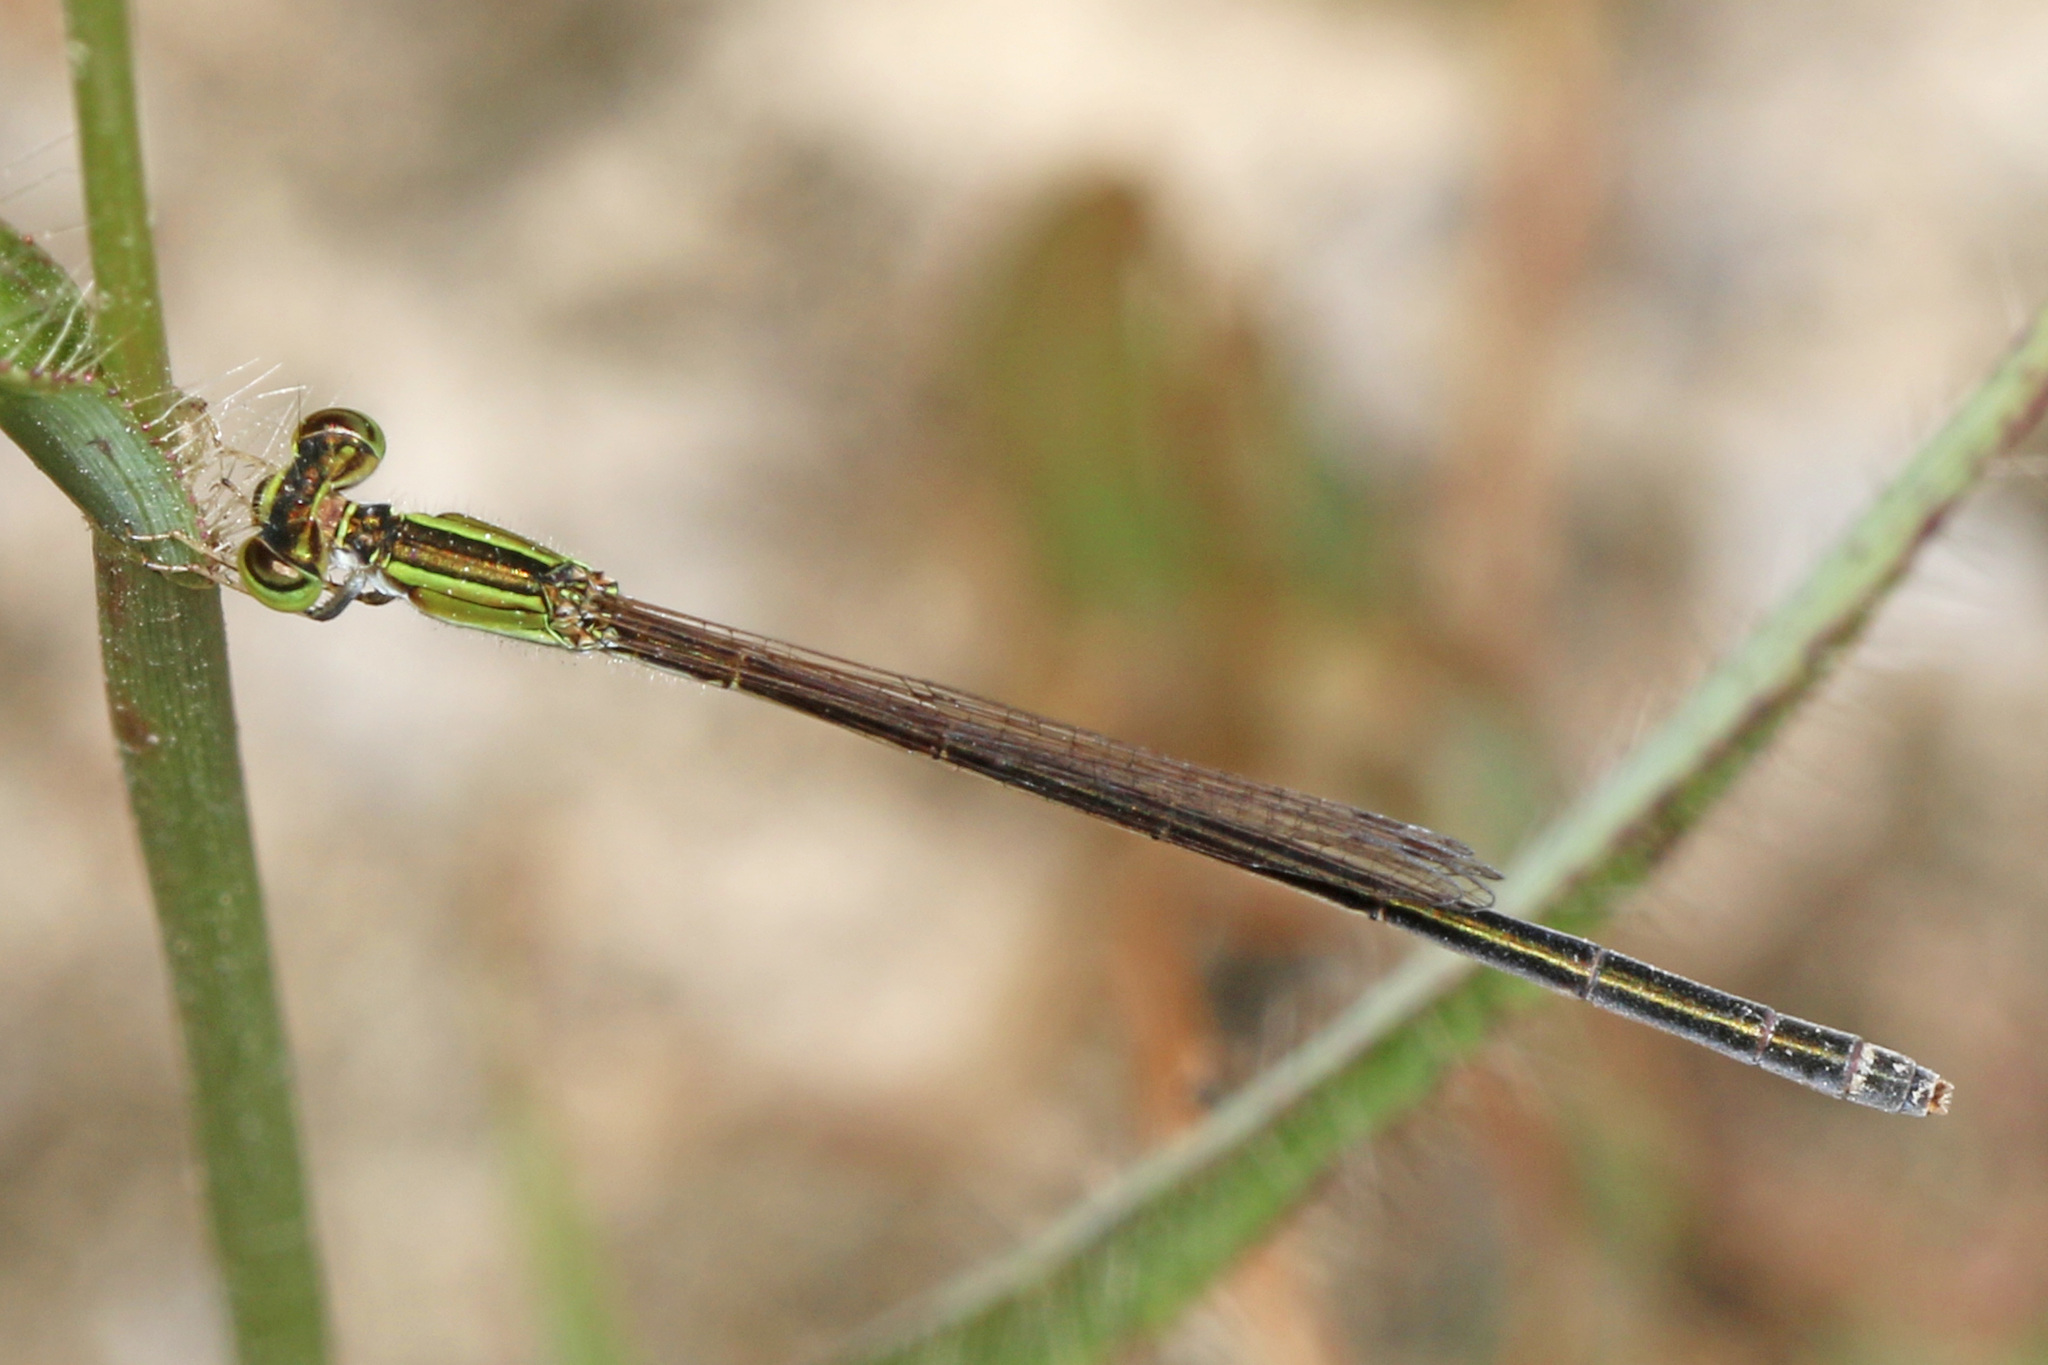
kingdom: Animalia
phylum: Arthropoda
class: Insecta
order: Odonata
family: Coenagrionidae
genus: Ischnura
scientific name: Ischnura hastata
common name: Citrine forktail
